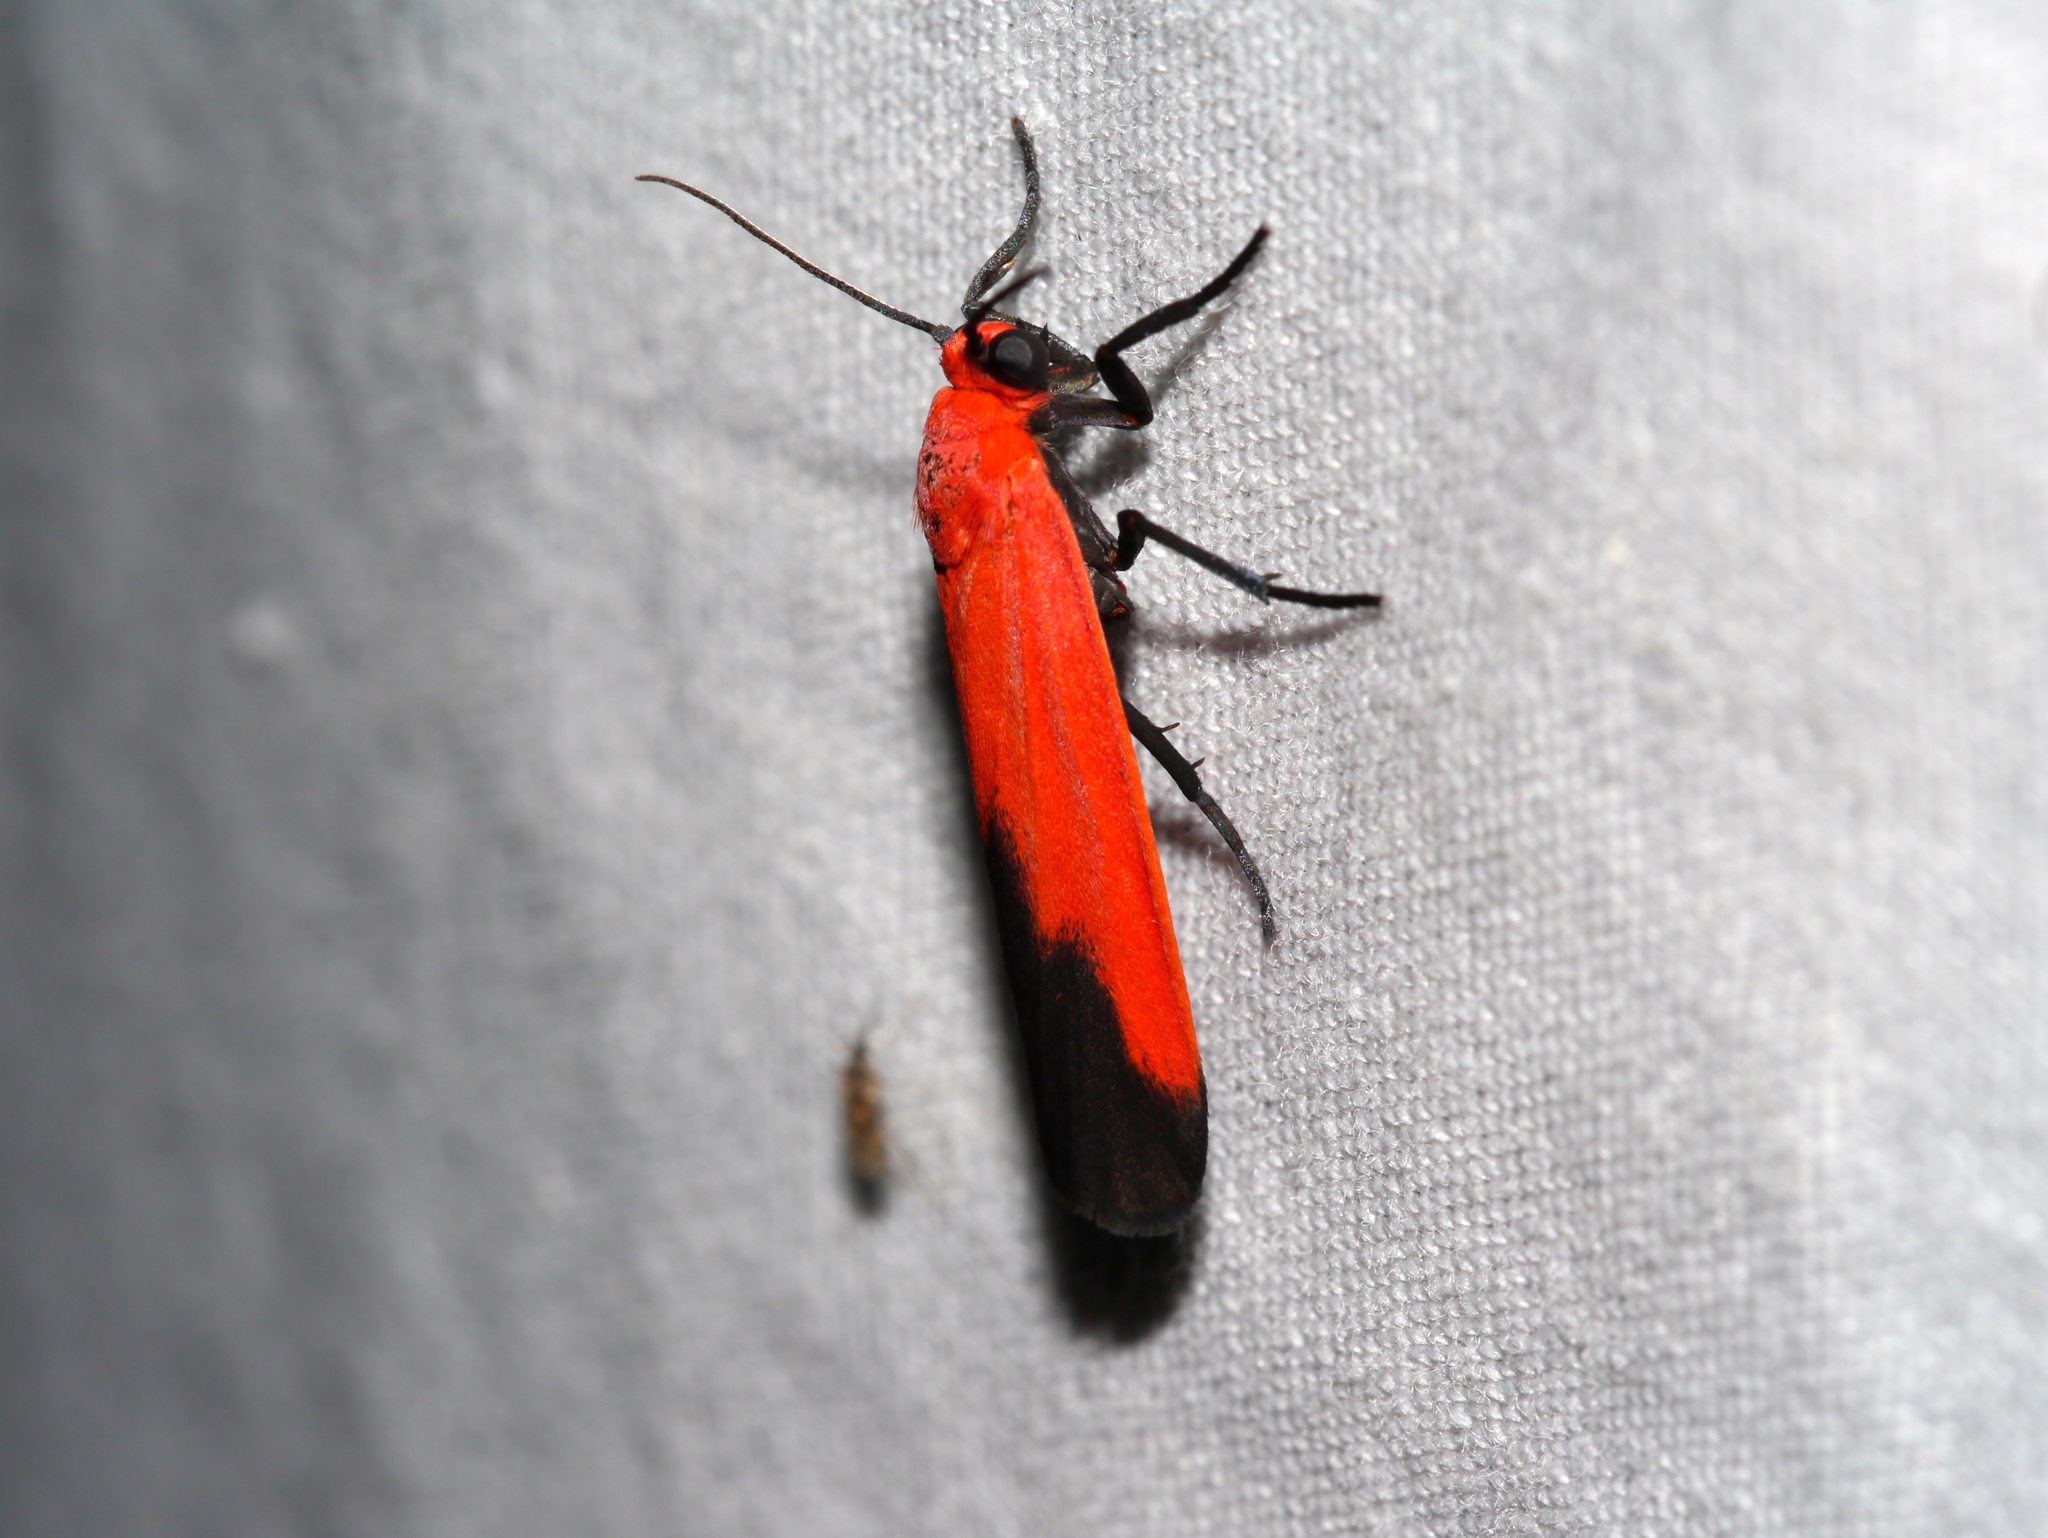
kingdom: Animalia
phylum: Arthropoda
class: Insecta
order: Lepidoptera
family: Erebidae
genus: Ptychoglene
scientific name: Ptychoglene coccinea
